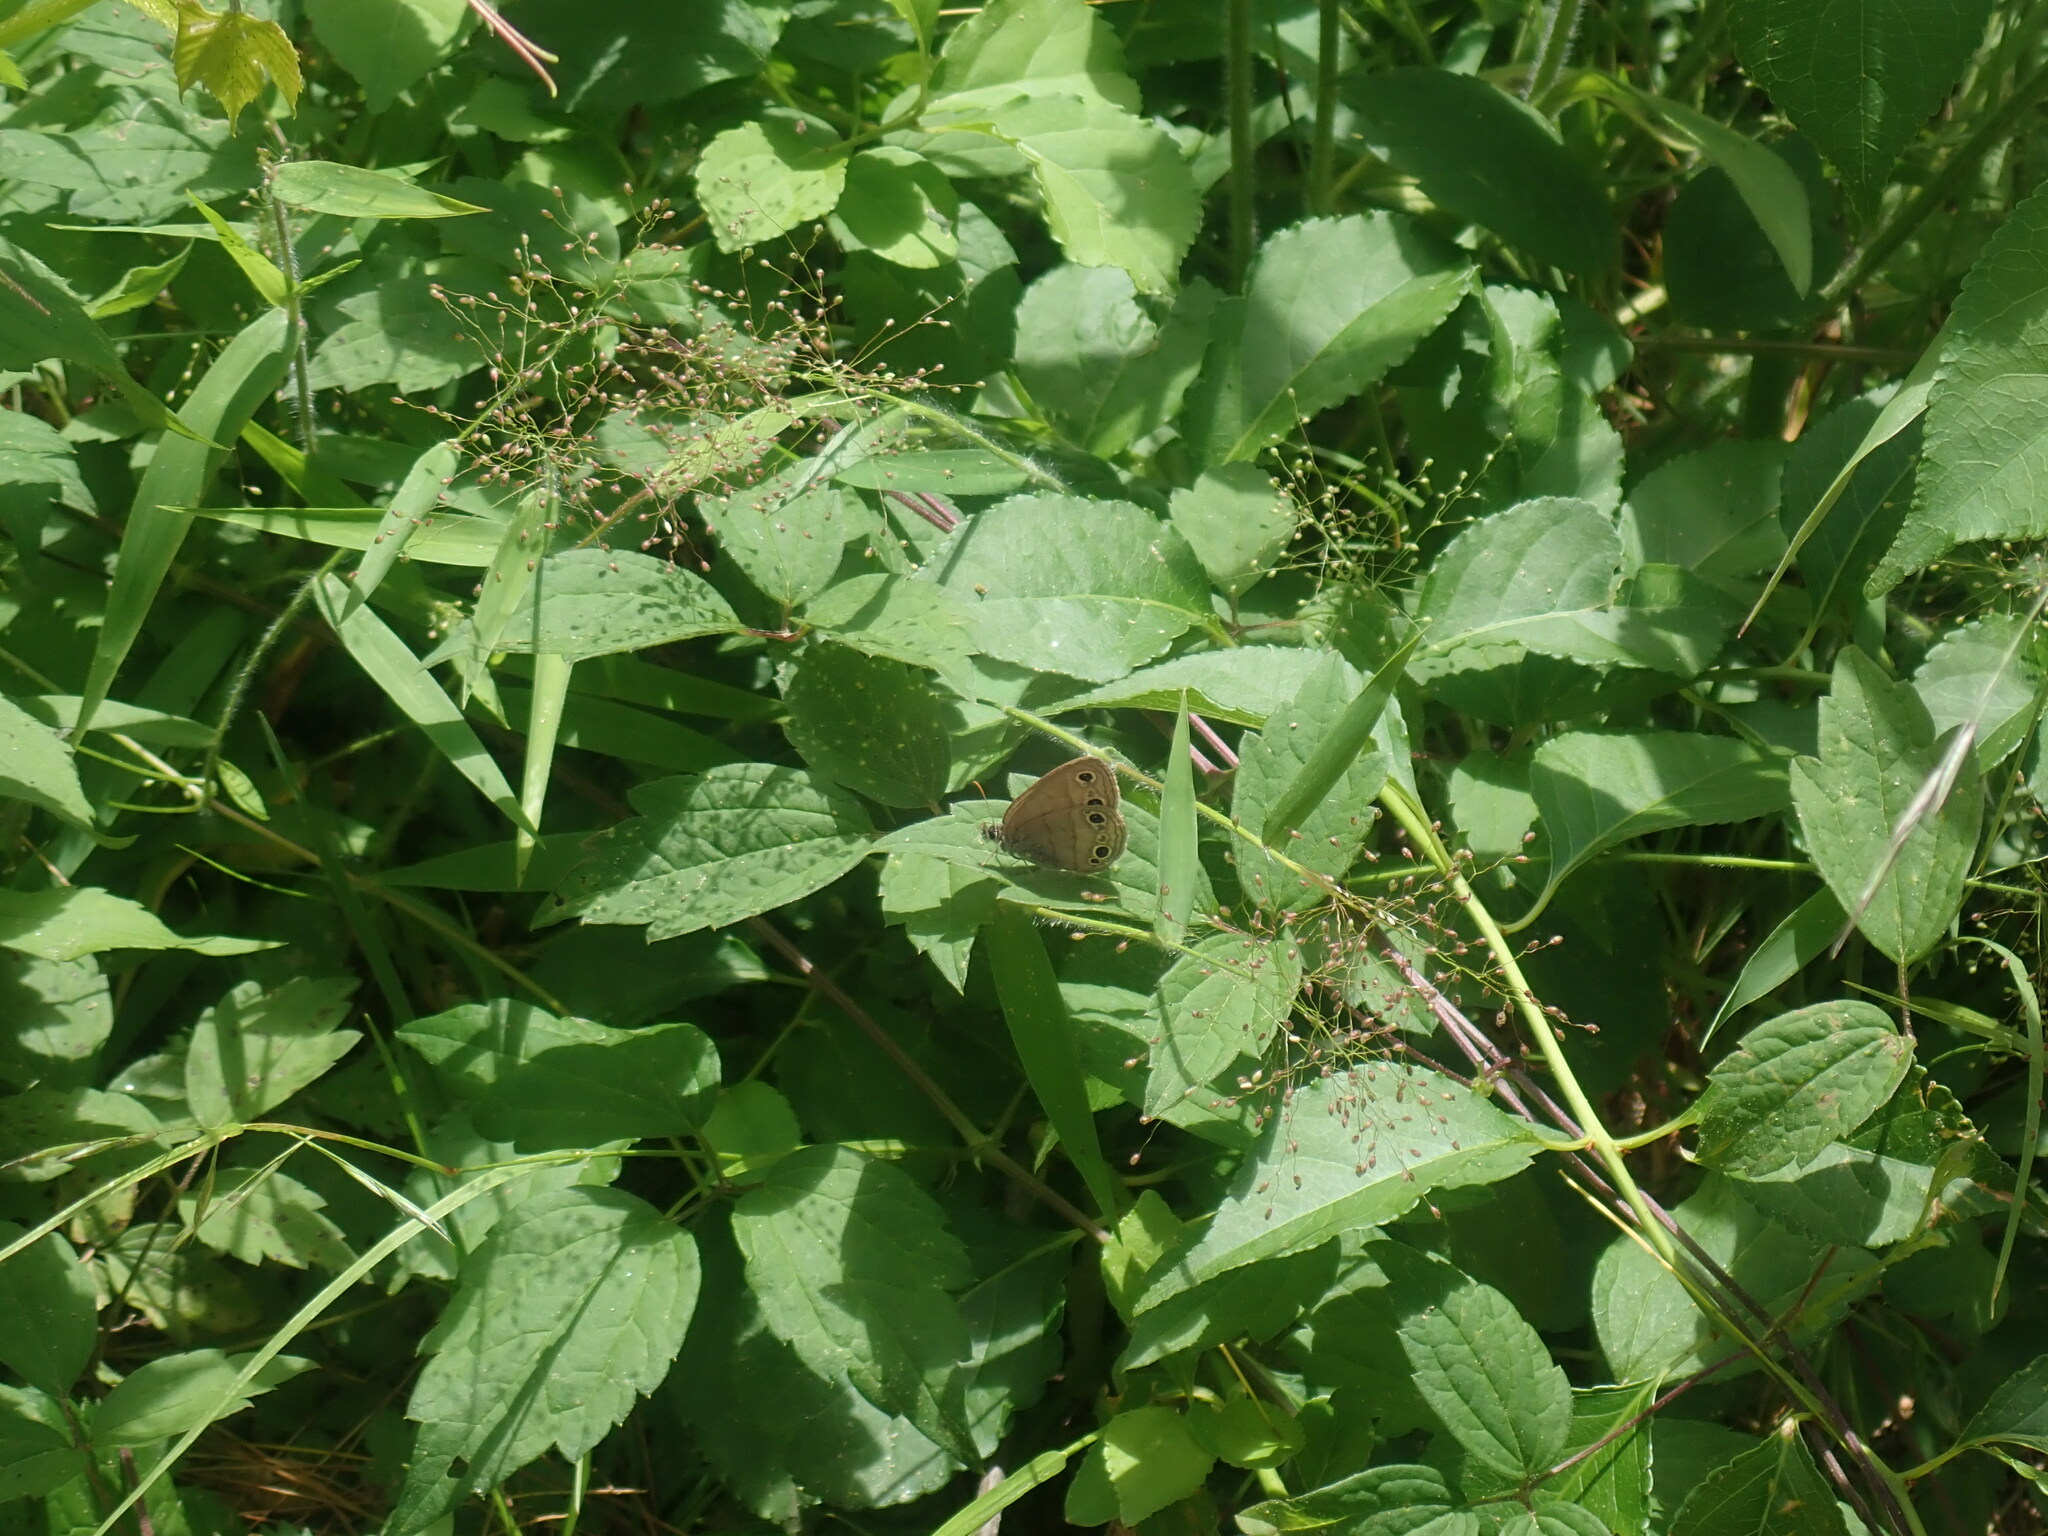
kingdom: Animalia
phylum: Arthropoda
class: Insecta
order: Lepidoptera
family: Nymphalidae
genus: Euptychia
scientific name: Euptychia cymela
